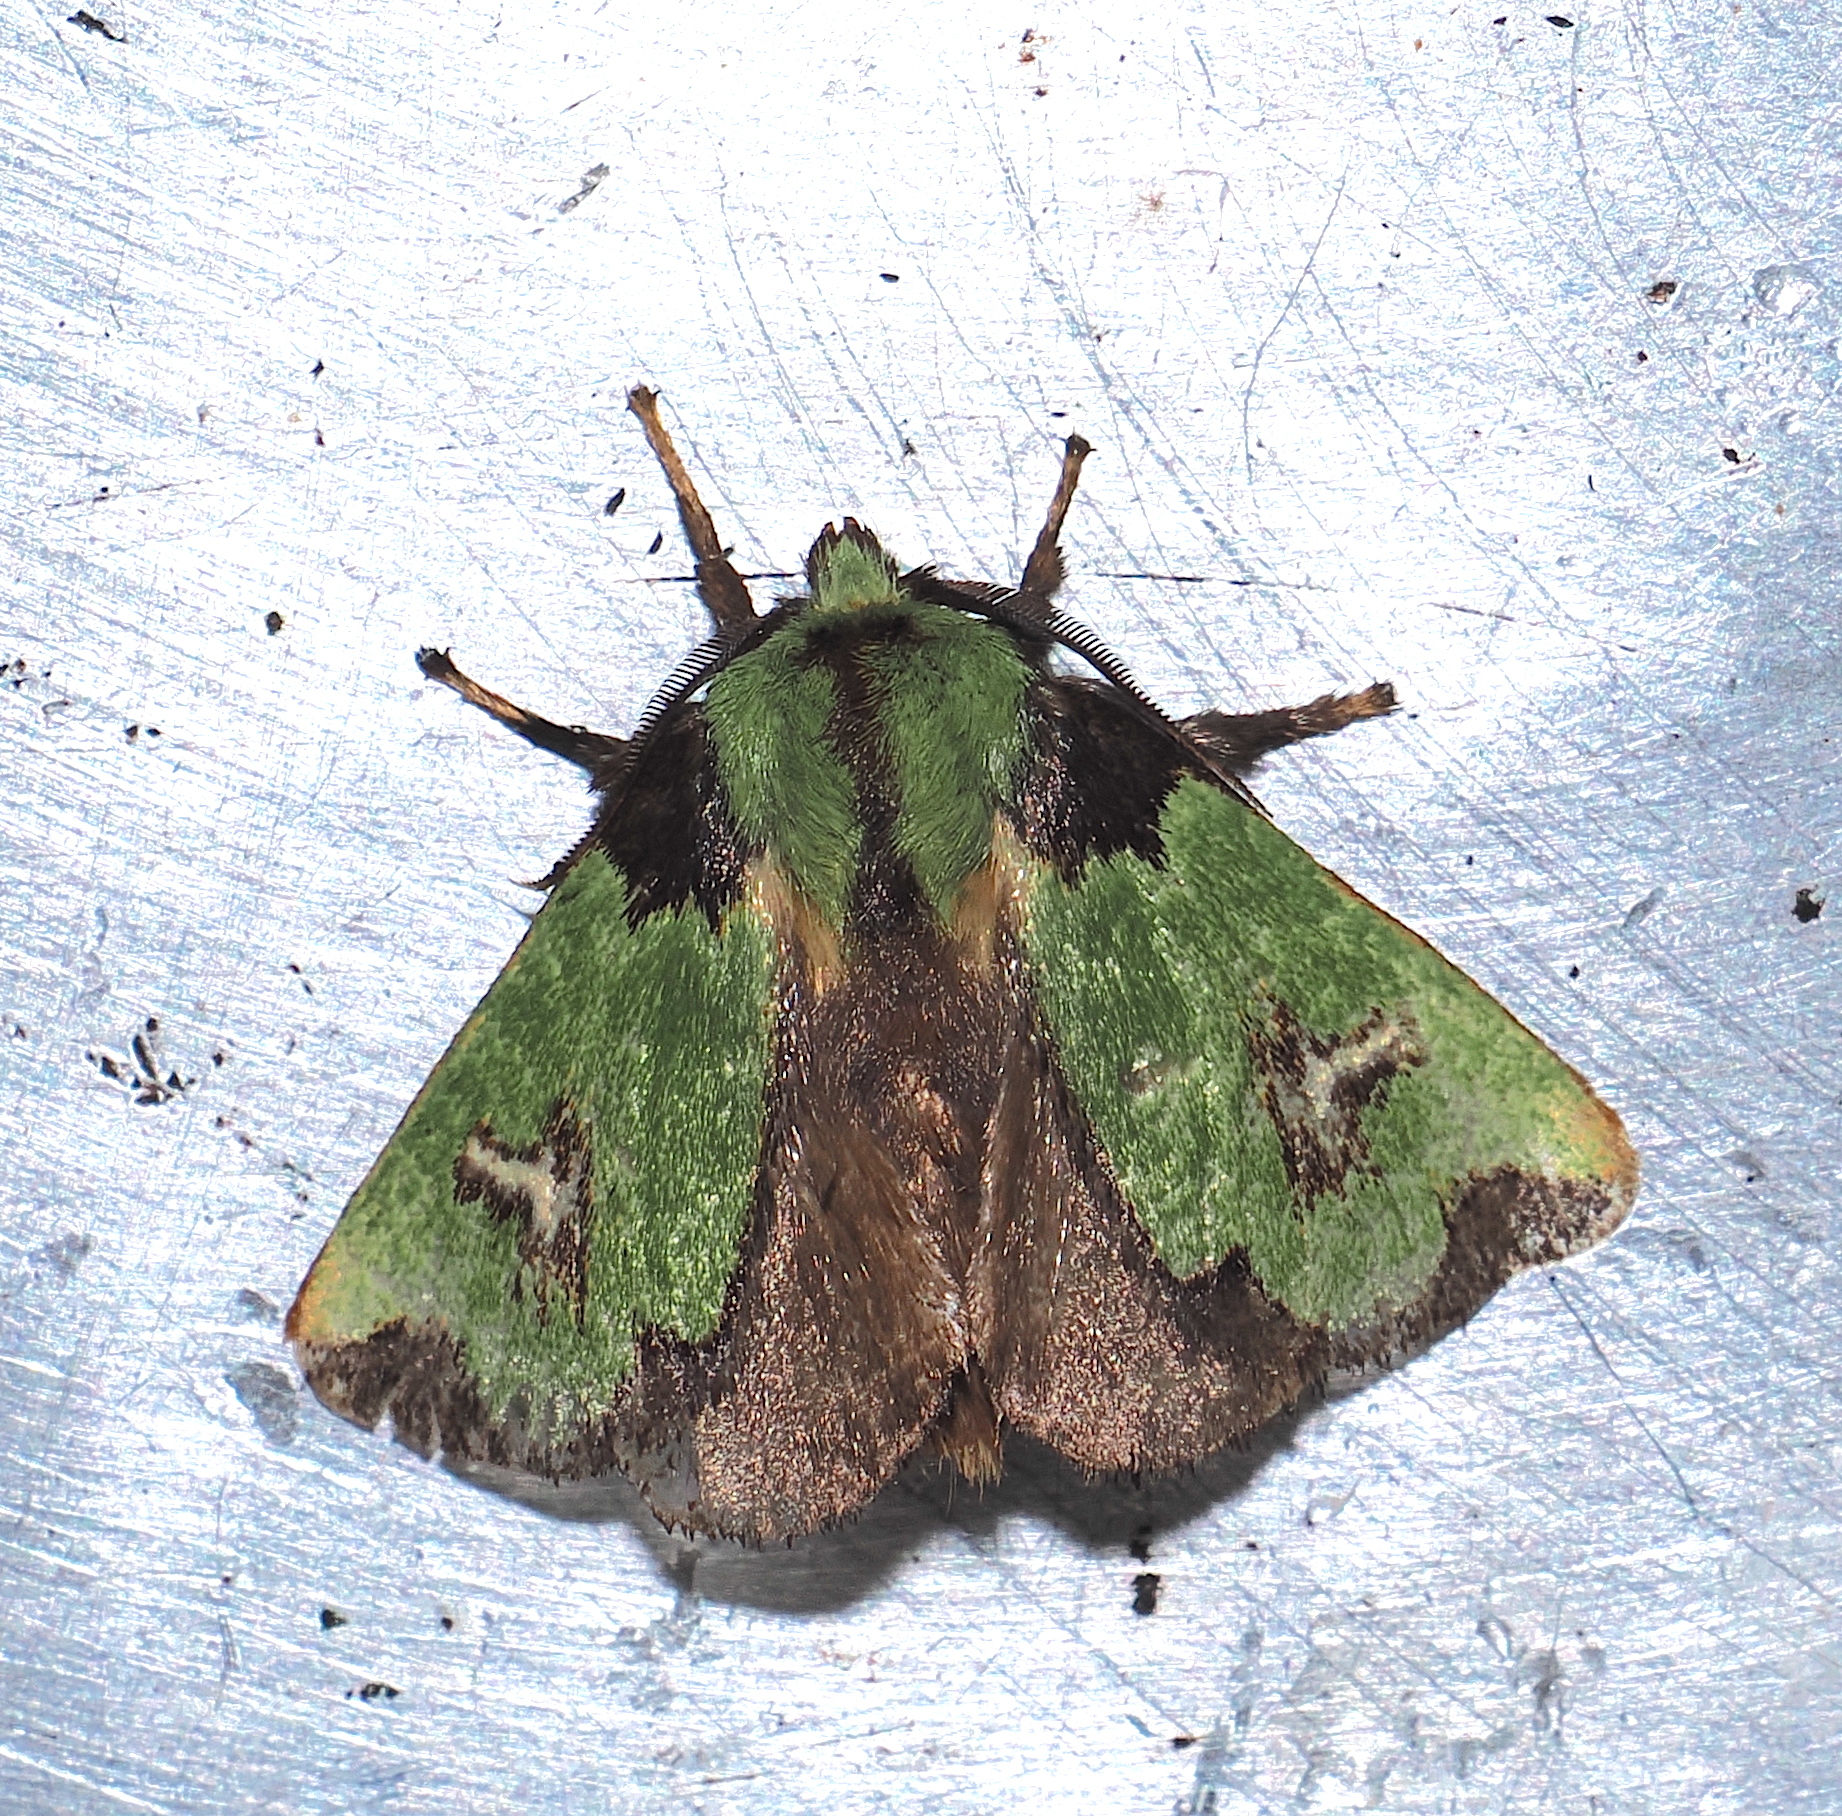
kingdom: Animalia
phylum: Arthropoda
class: Insecta
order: Lepidoptera
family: Limacodidae
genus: Parasa
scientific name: Parasa campylostagma
